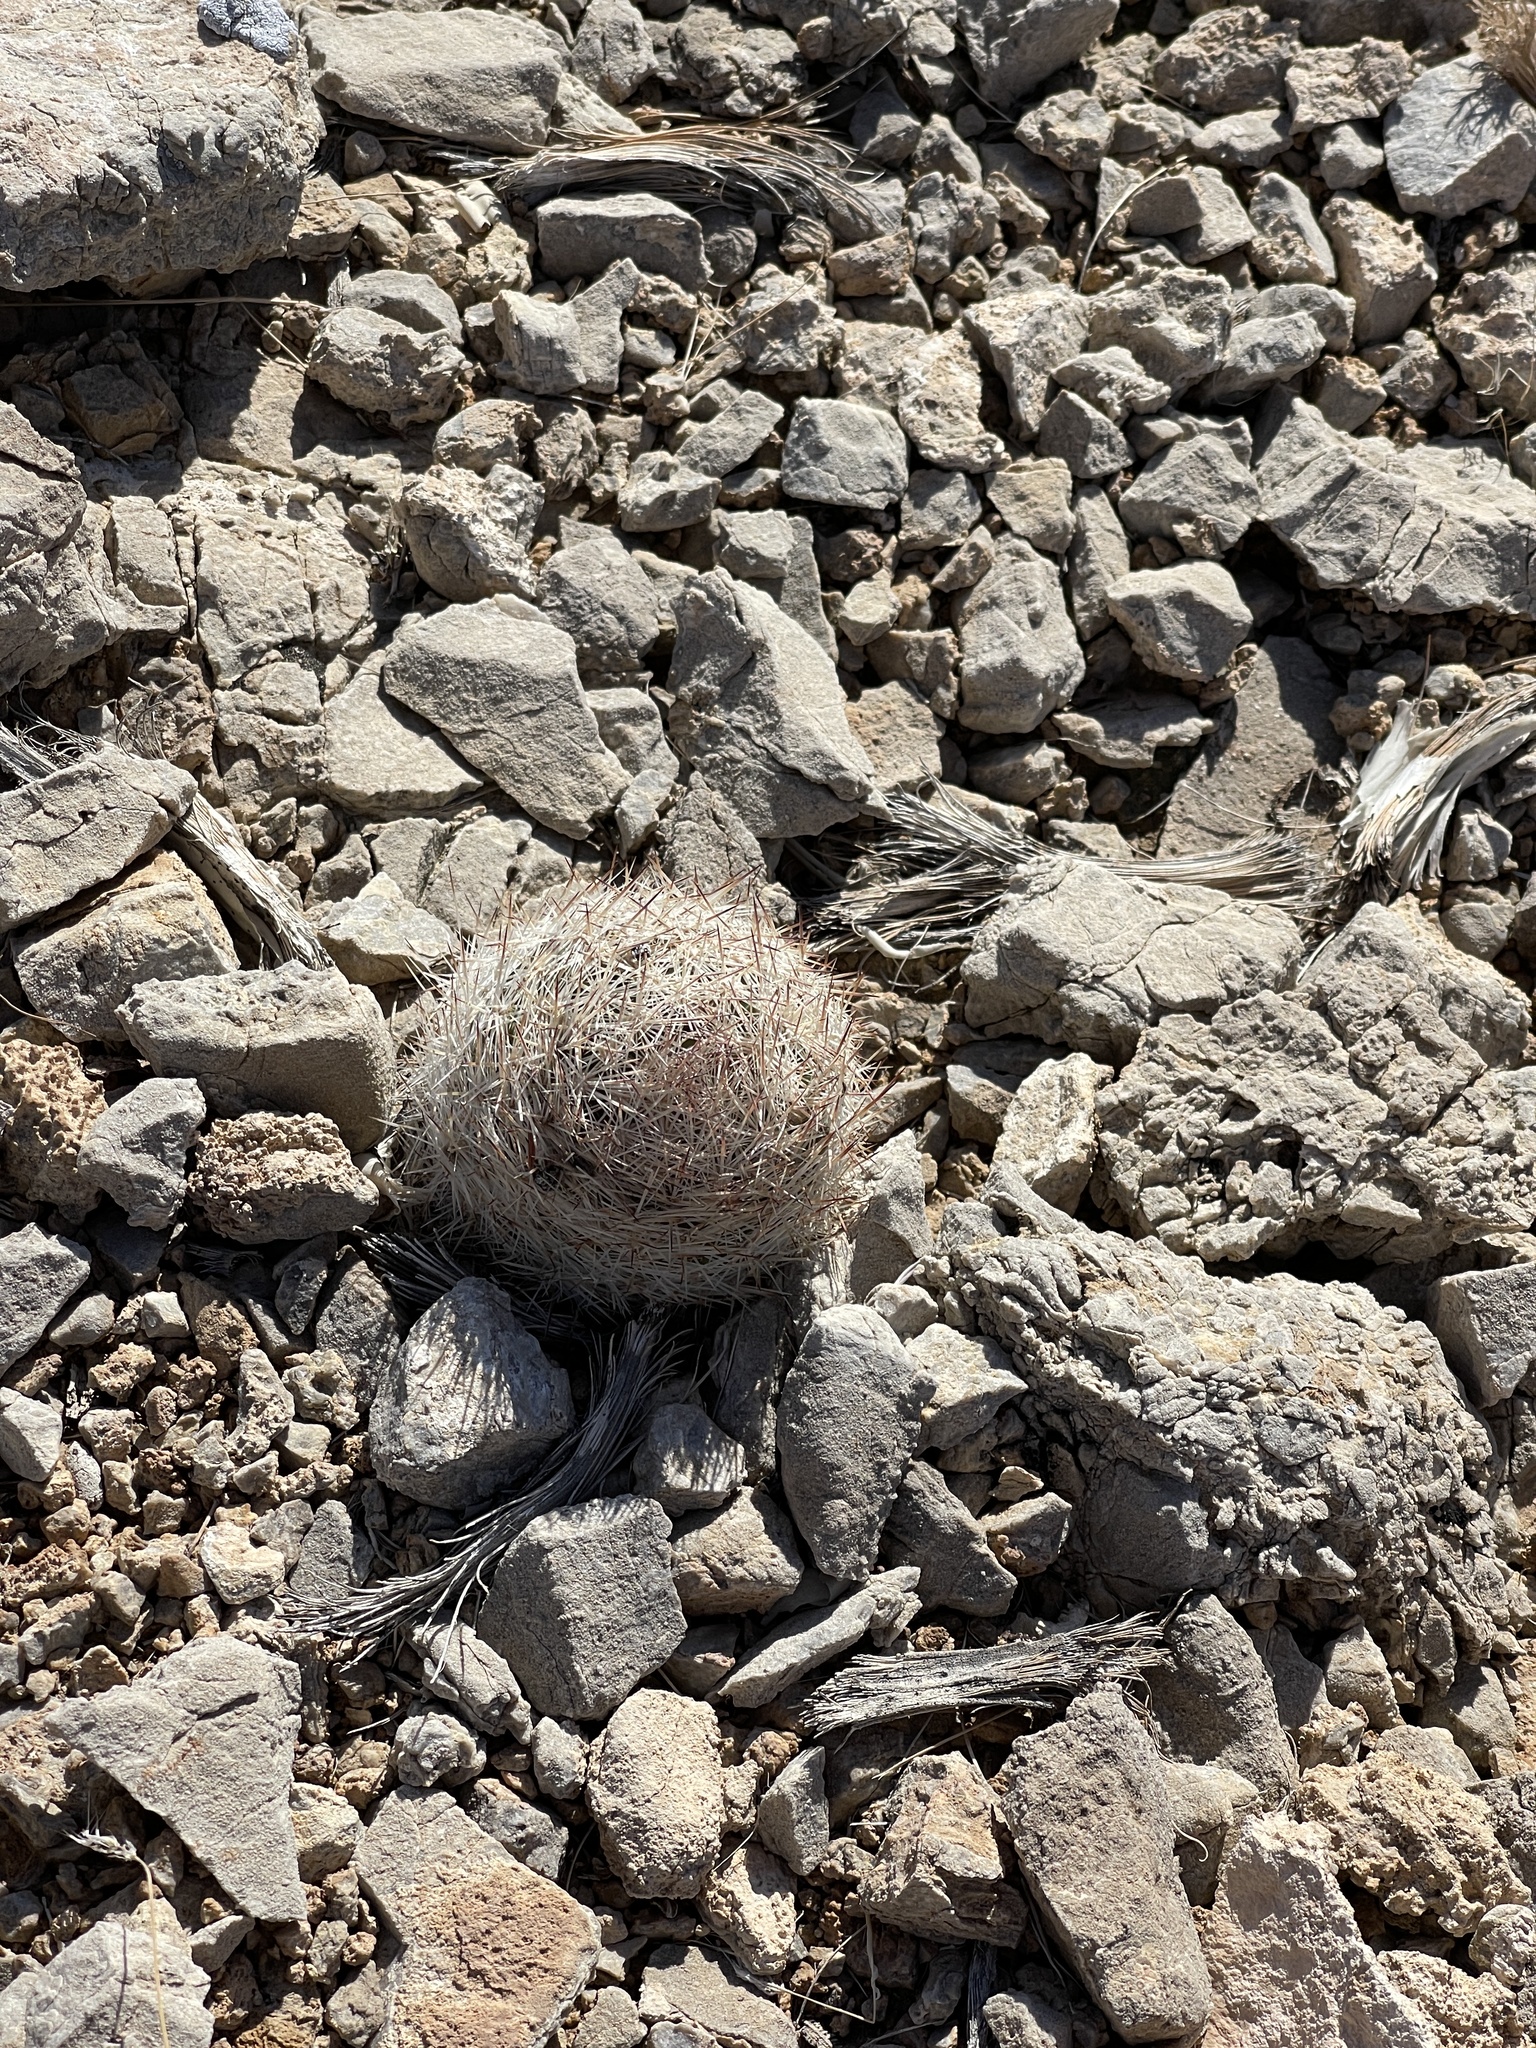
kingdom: Plantae
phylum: Tracheophyta
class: Magnoliopsida
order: Caryophyllales
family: Cactaceae
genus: Pelecyphora
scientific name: Pelecyphora dasyacantha
